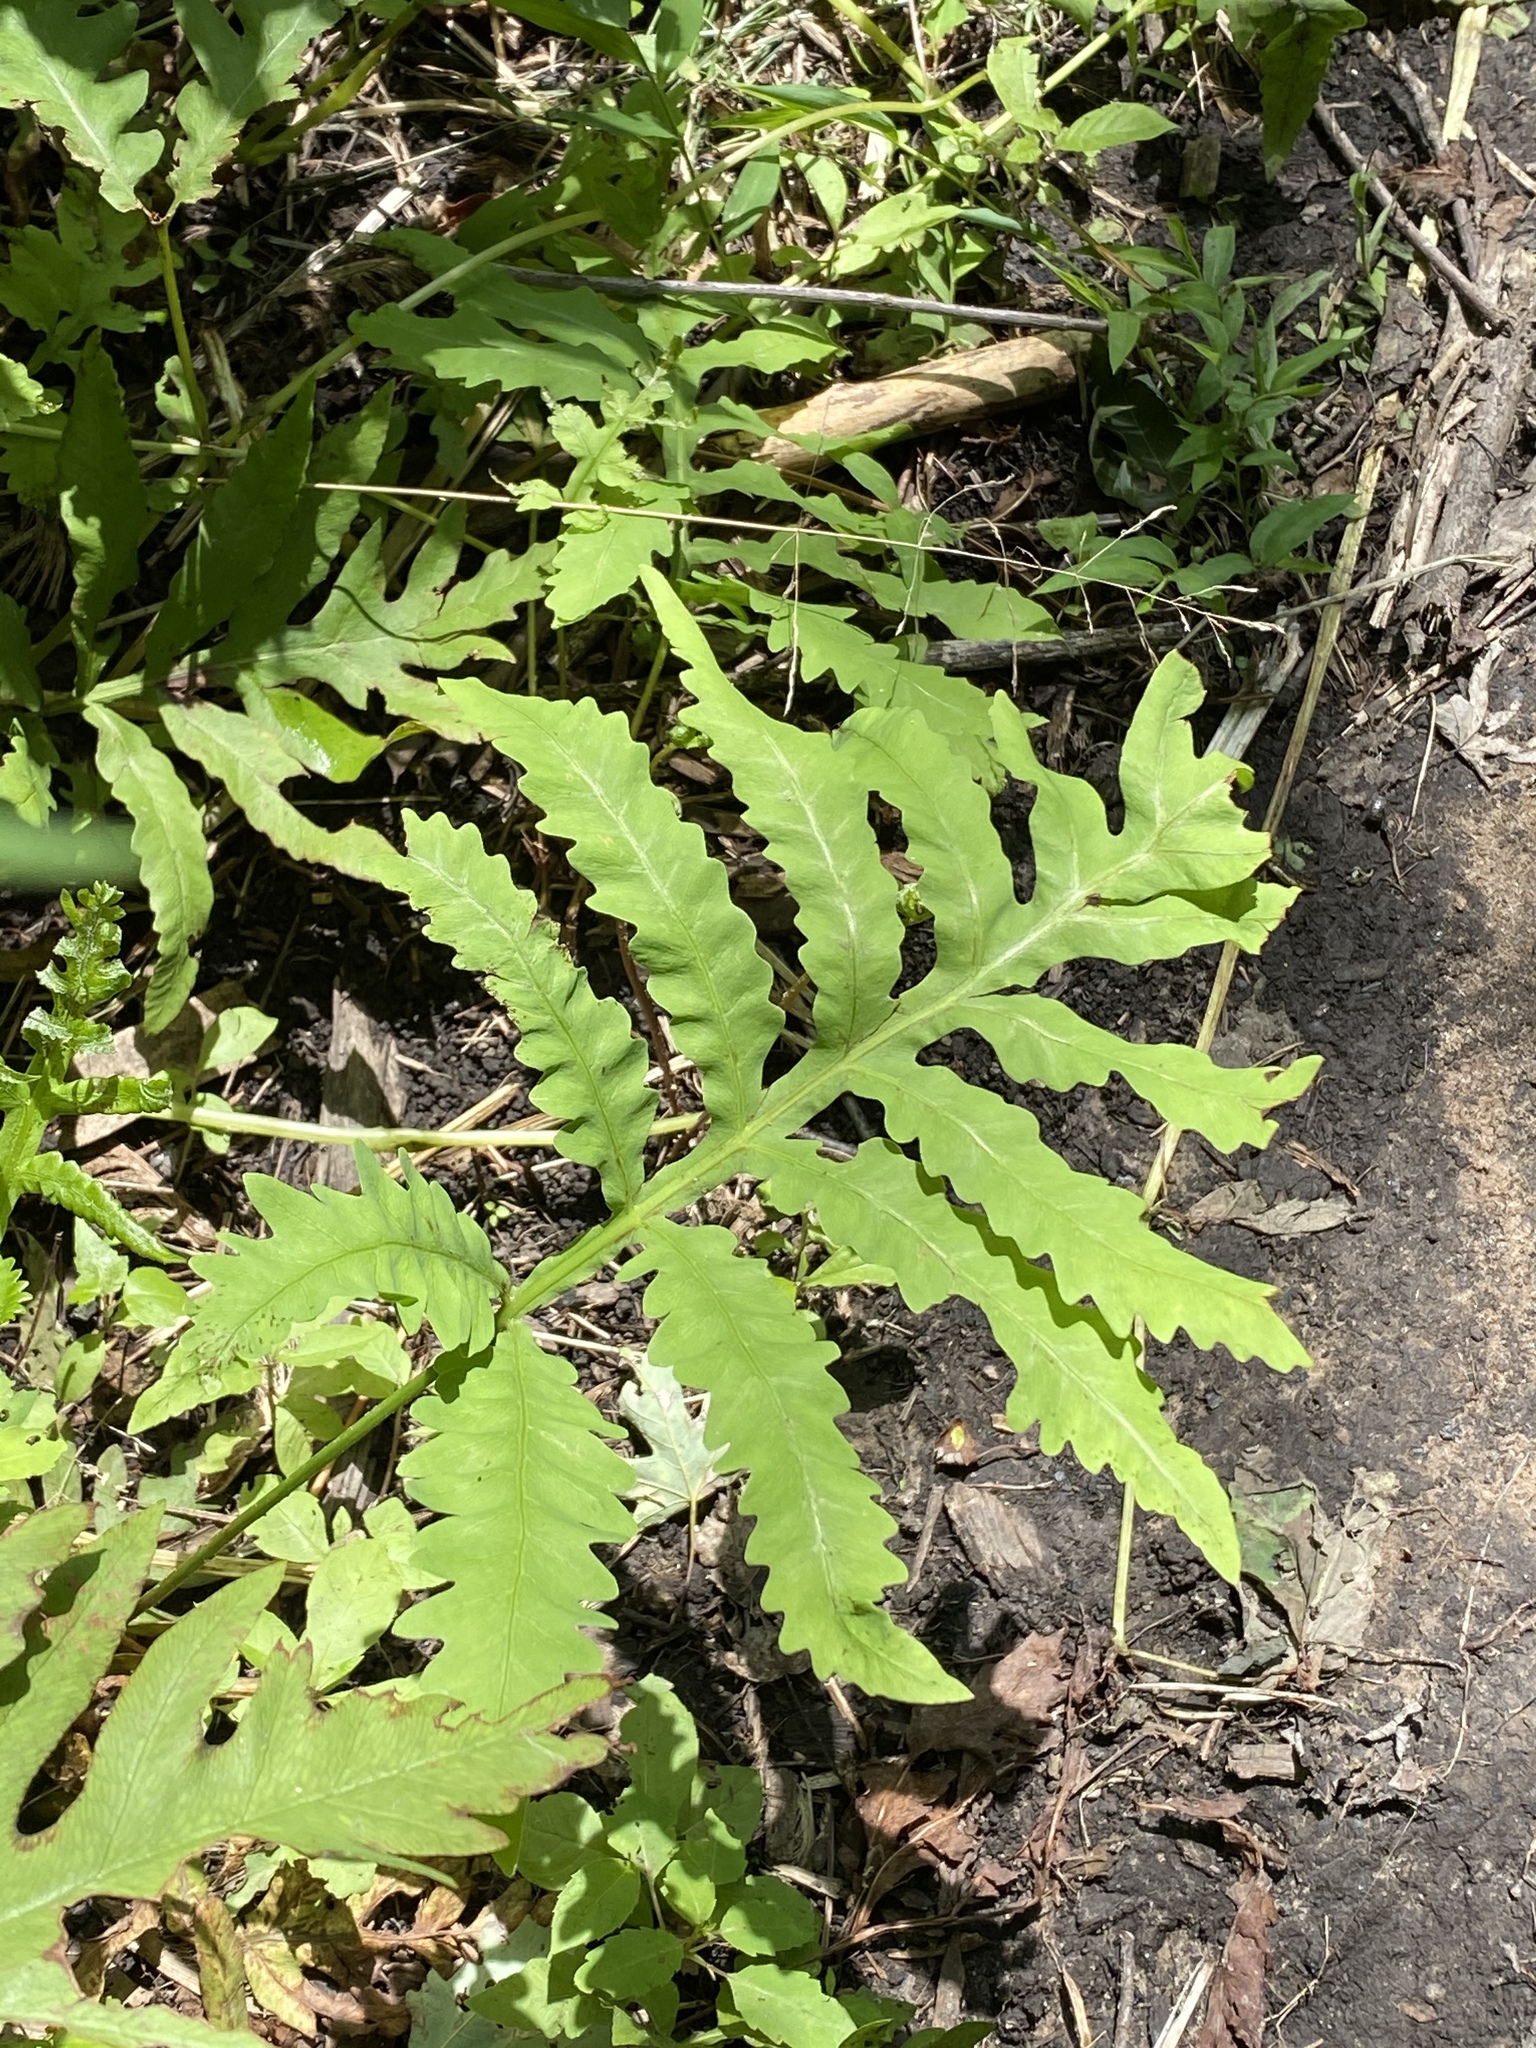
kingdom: Plantae
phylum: Tracheophyta
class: Polypodiopsida
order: Polypodiales
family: Onocleaceae
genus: Onoclea
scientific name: Onoclea sensibilis
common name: Sensitive fern
